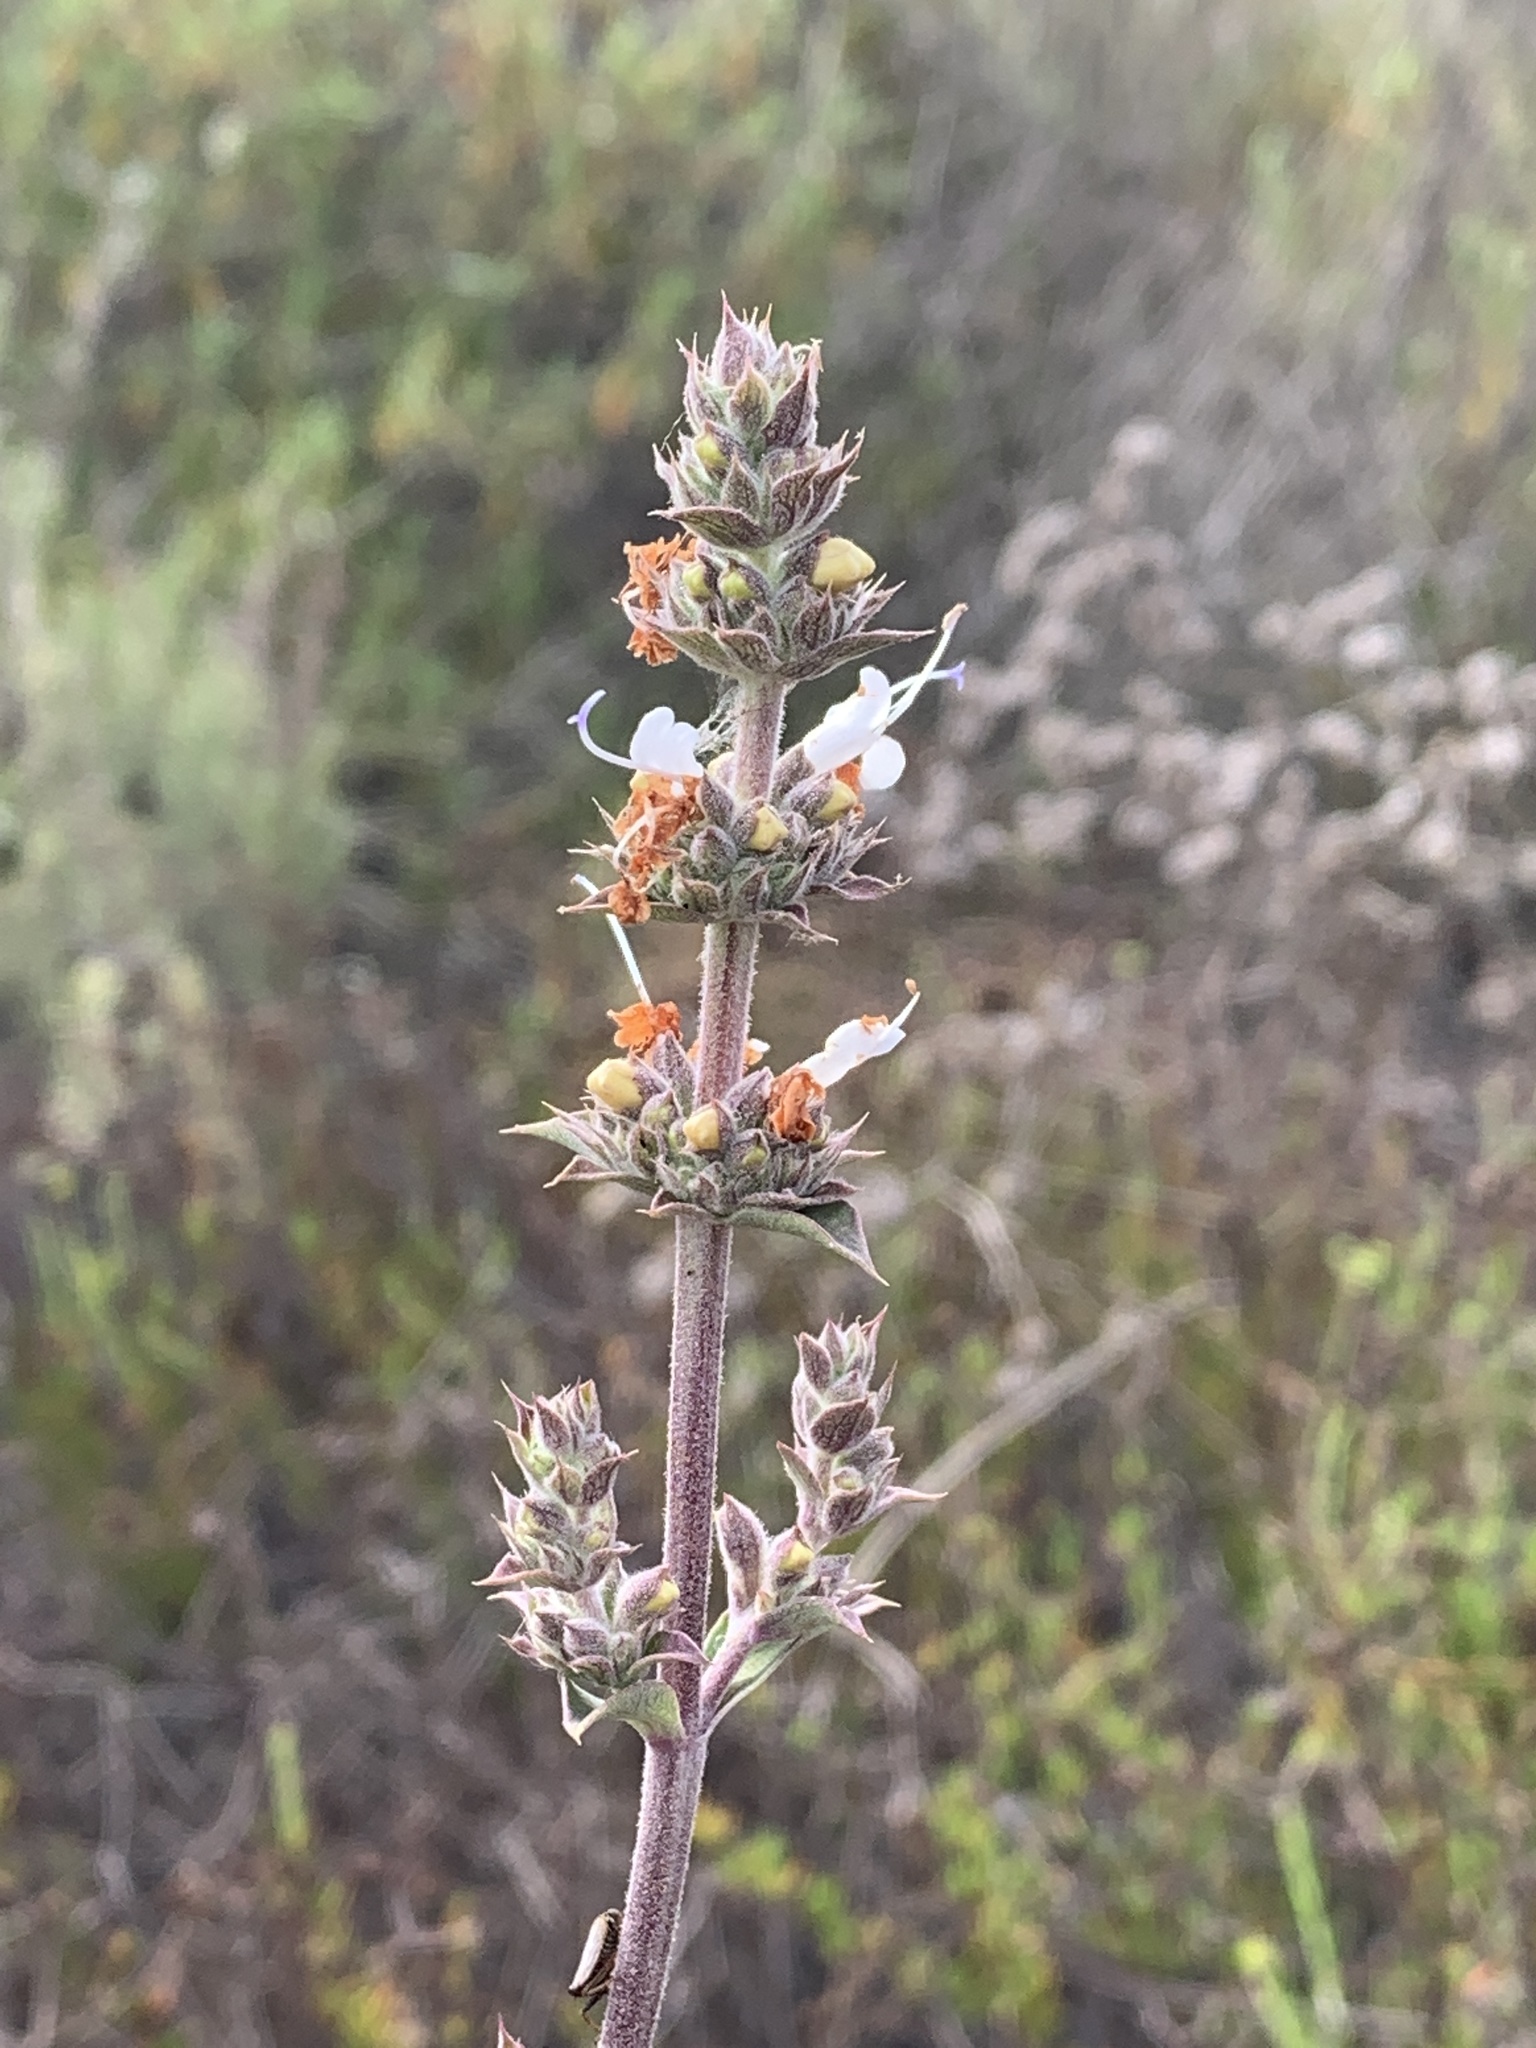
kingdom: Plantae
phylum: Tracheophyta
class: Magnoliopsida
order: Lamiales
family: Lamiaceae
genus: Salvia
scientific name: Salvia apiana
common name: White sage
